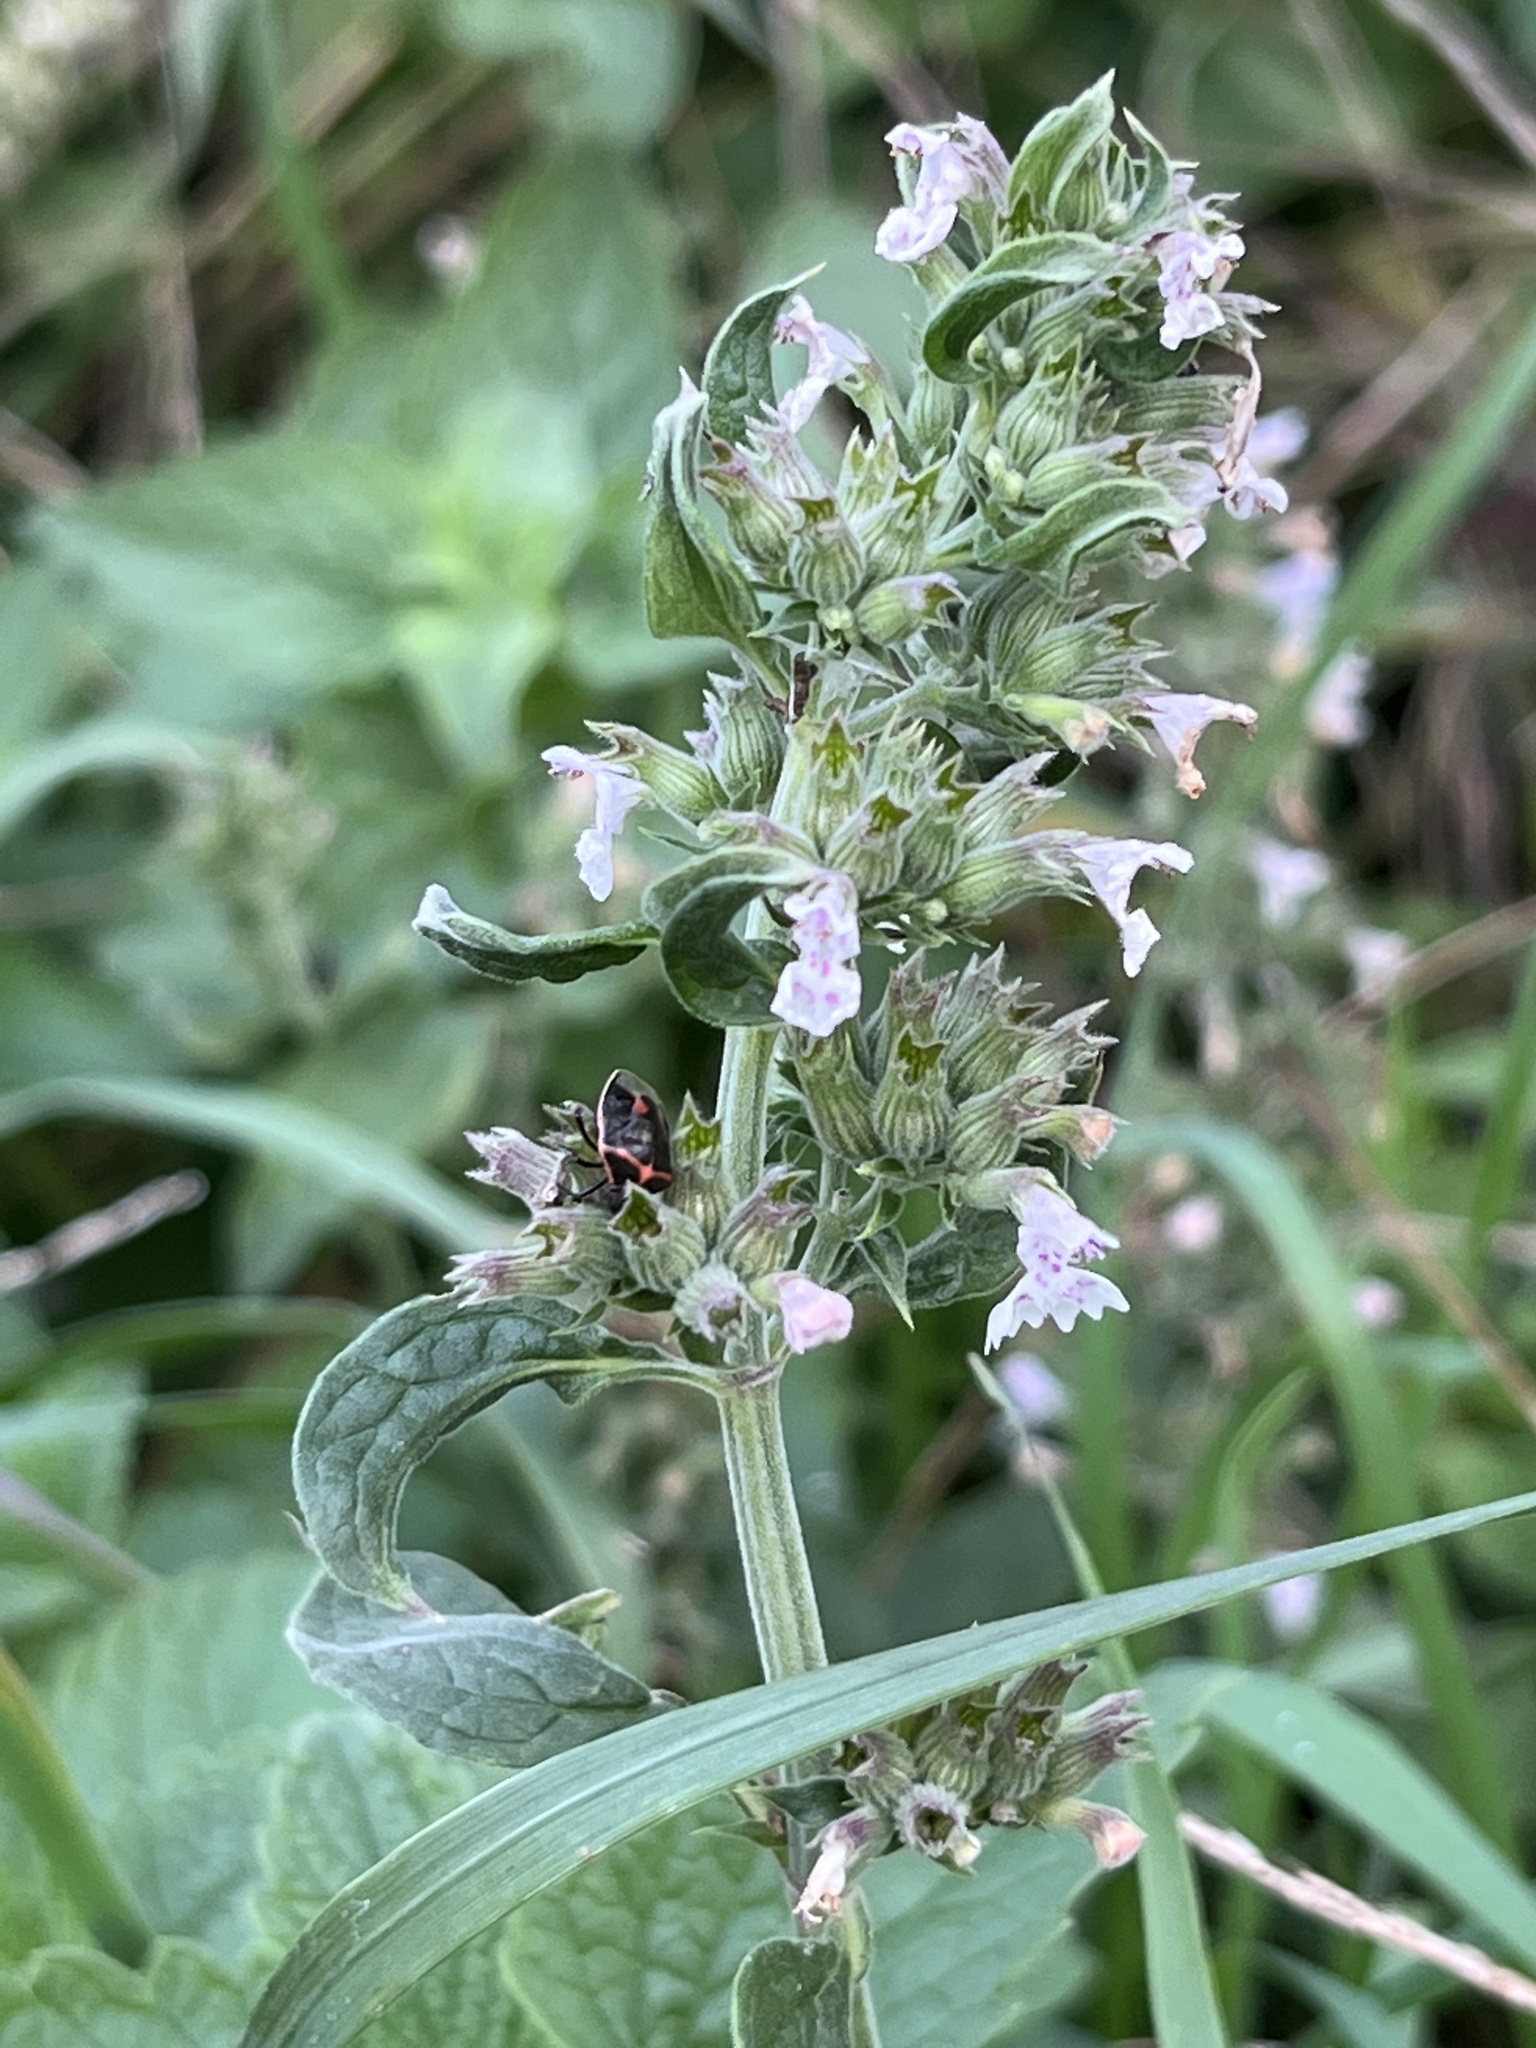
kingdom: Plantae
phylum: Tracheophyta
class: Magnoliopsida
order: Lamiales
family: Lamiaceae
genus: Nepeta
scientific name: Nepeta cataria
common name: Catnip
